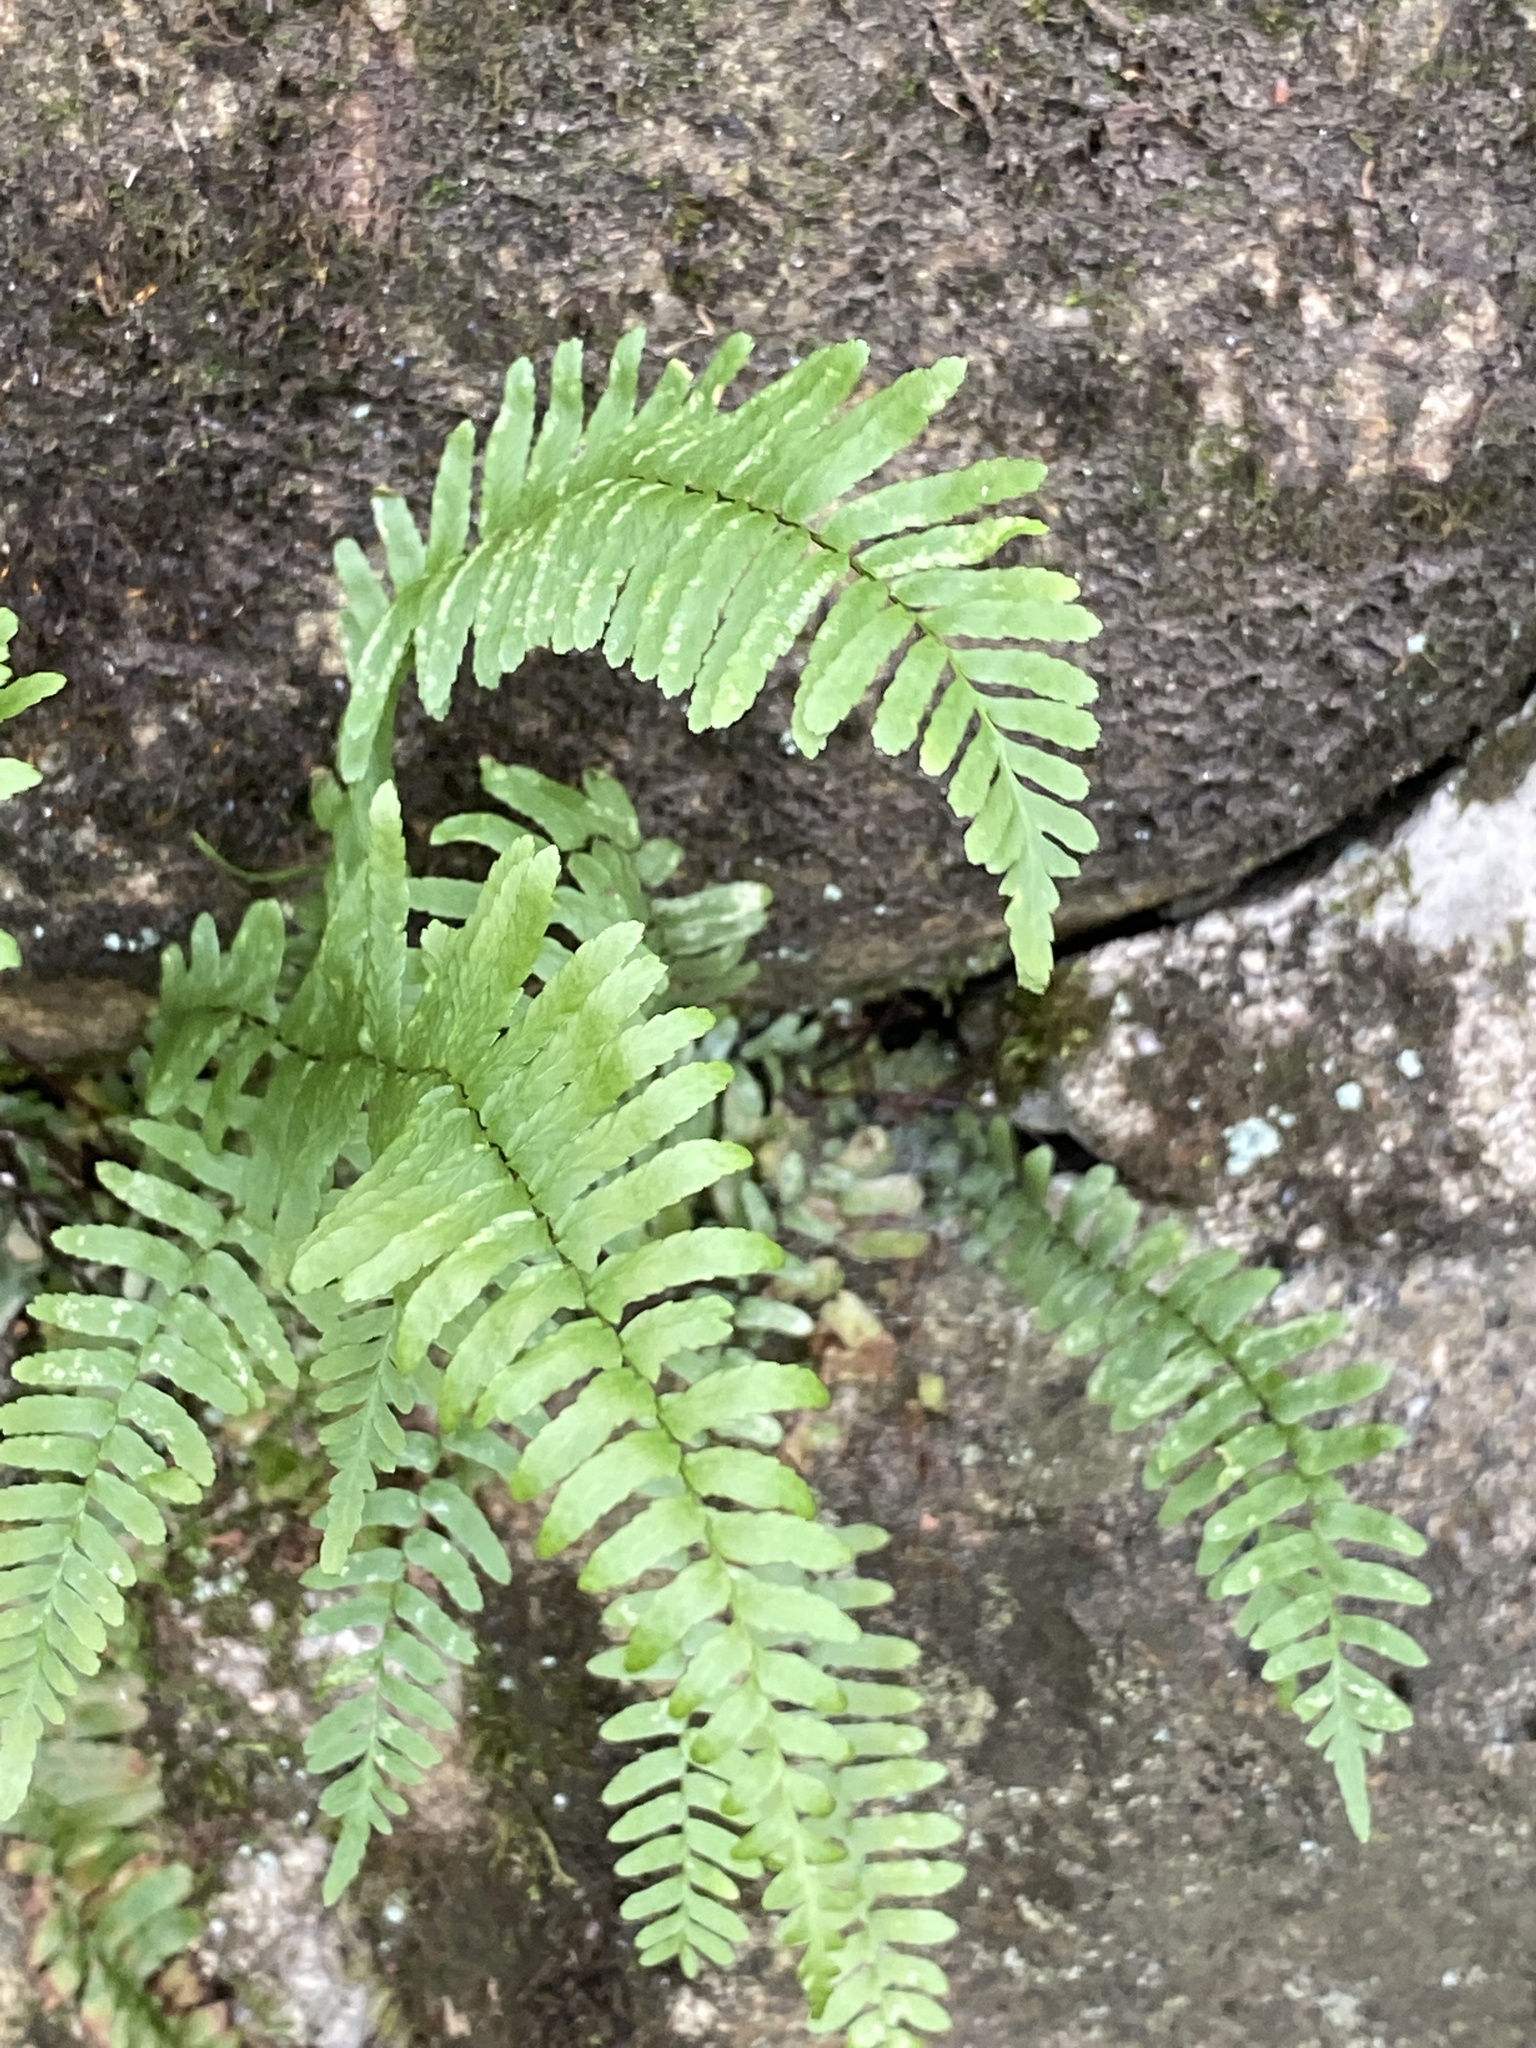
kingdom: Plantae
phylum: Tracheophyta
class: Polypodiopsida
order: Polypodiales
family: Aspleniaceae
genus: Asplenium
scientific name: Asplenium platyneuron
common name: Ebony spleenwort
